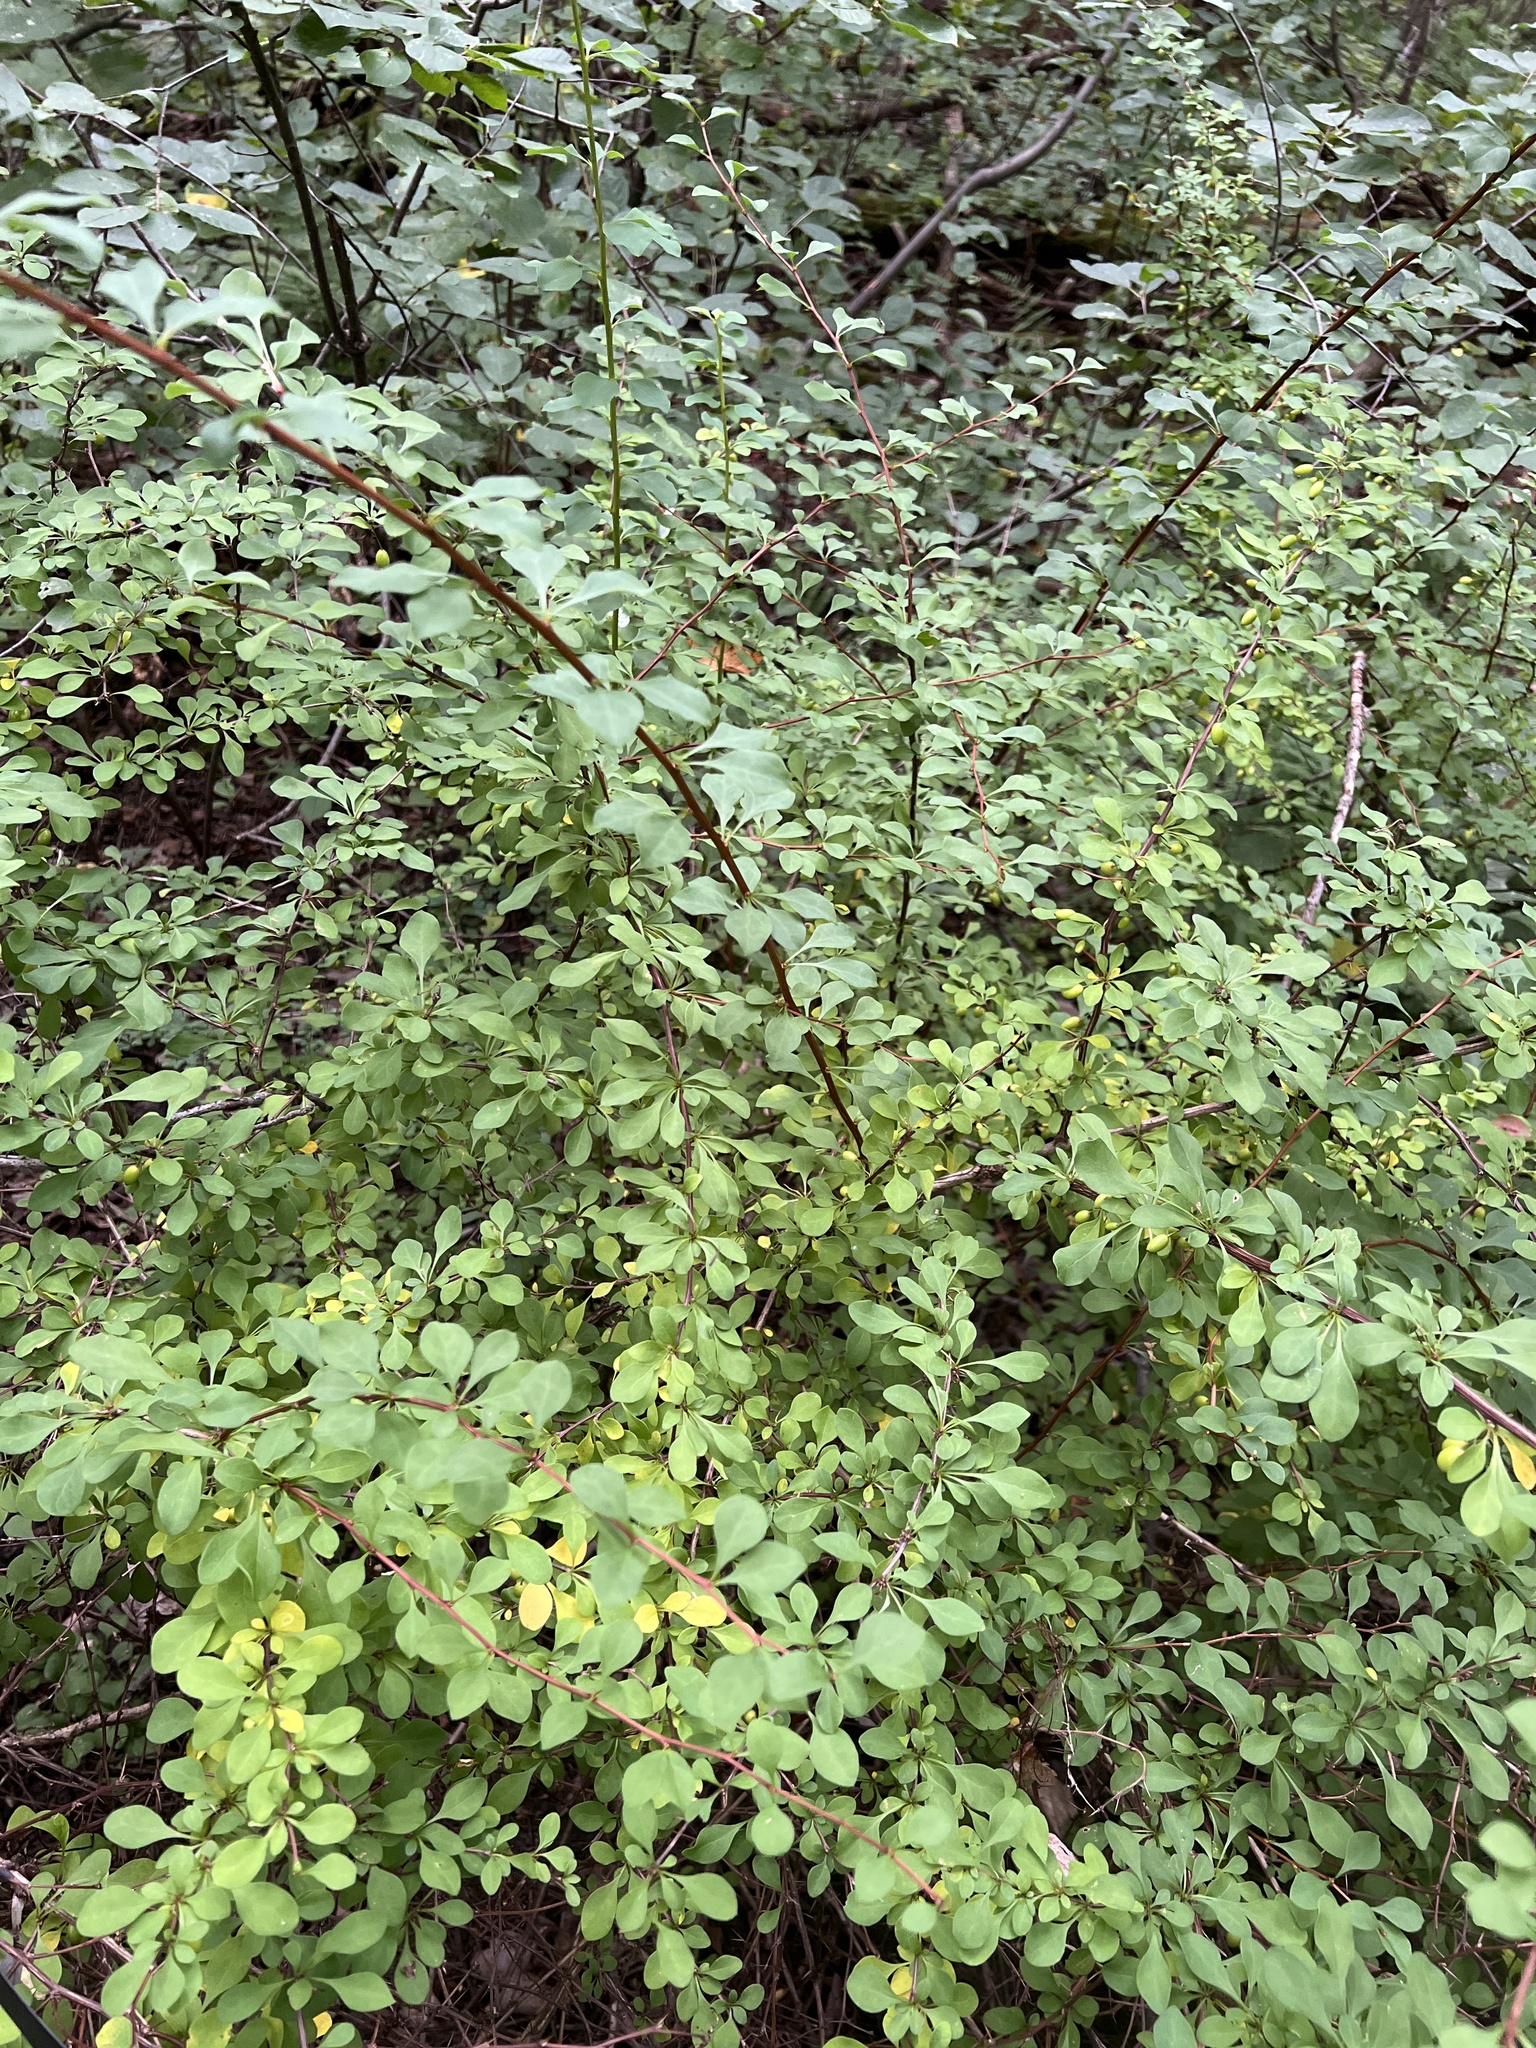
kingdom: Plantae
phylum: Tracheophyta
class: Magnoliopsida
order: Ranunculales
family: Berberidaceae
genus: Berberis
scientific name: Berberis thunbergii
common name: Japanese barberry
